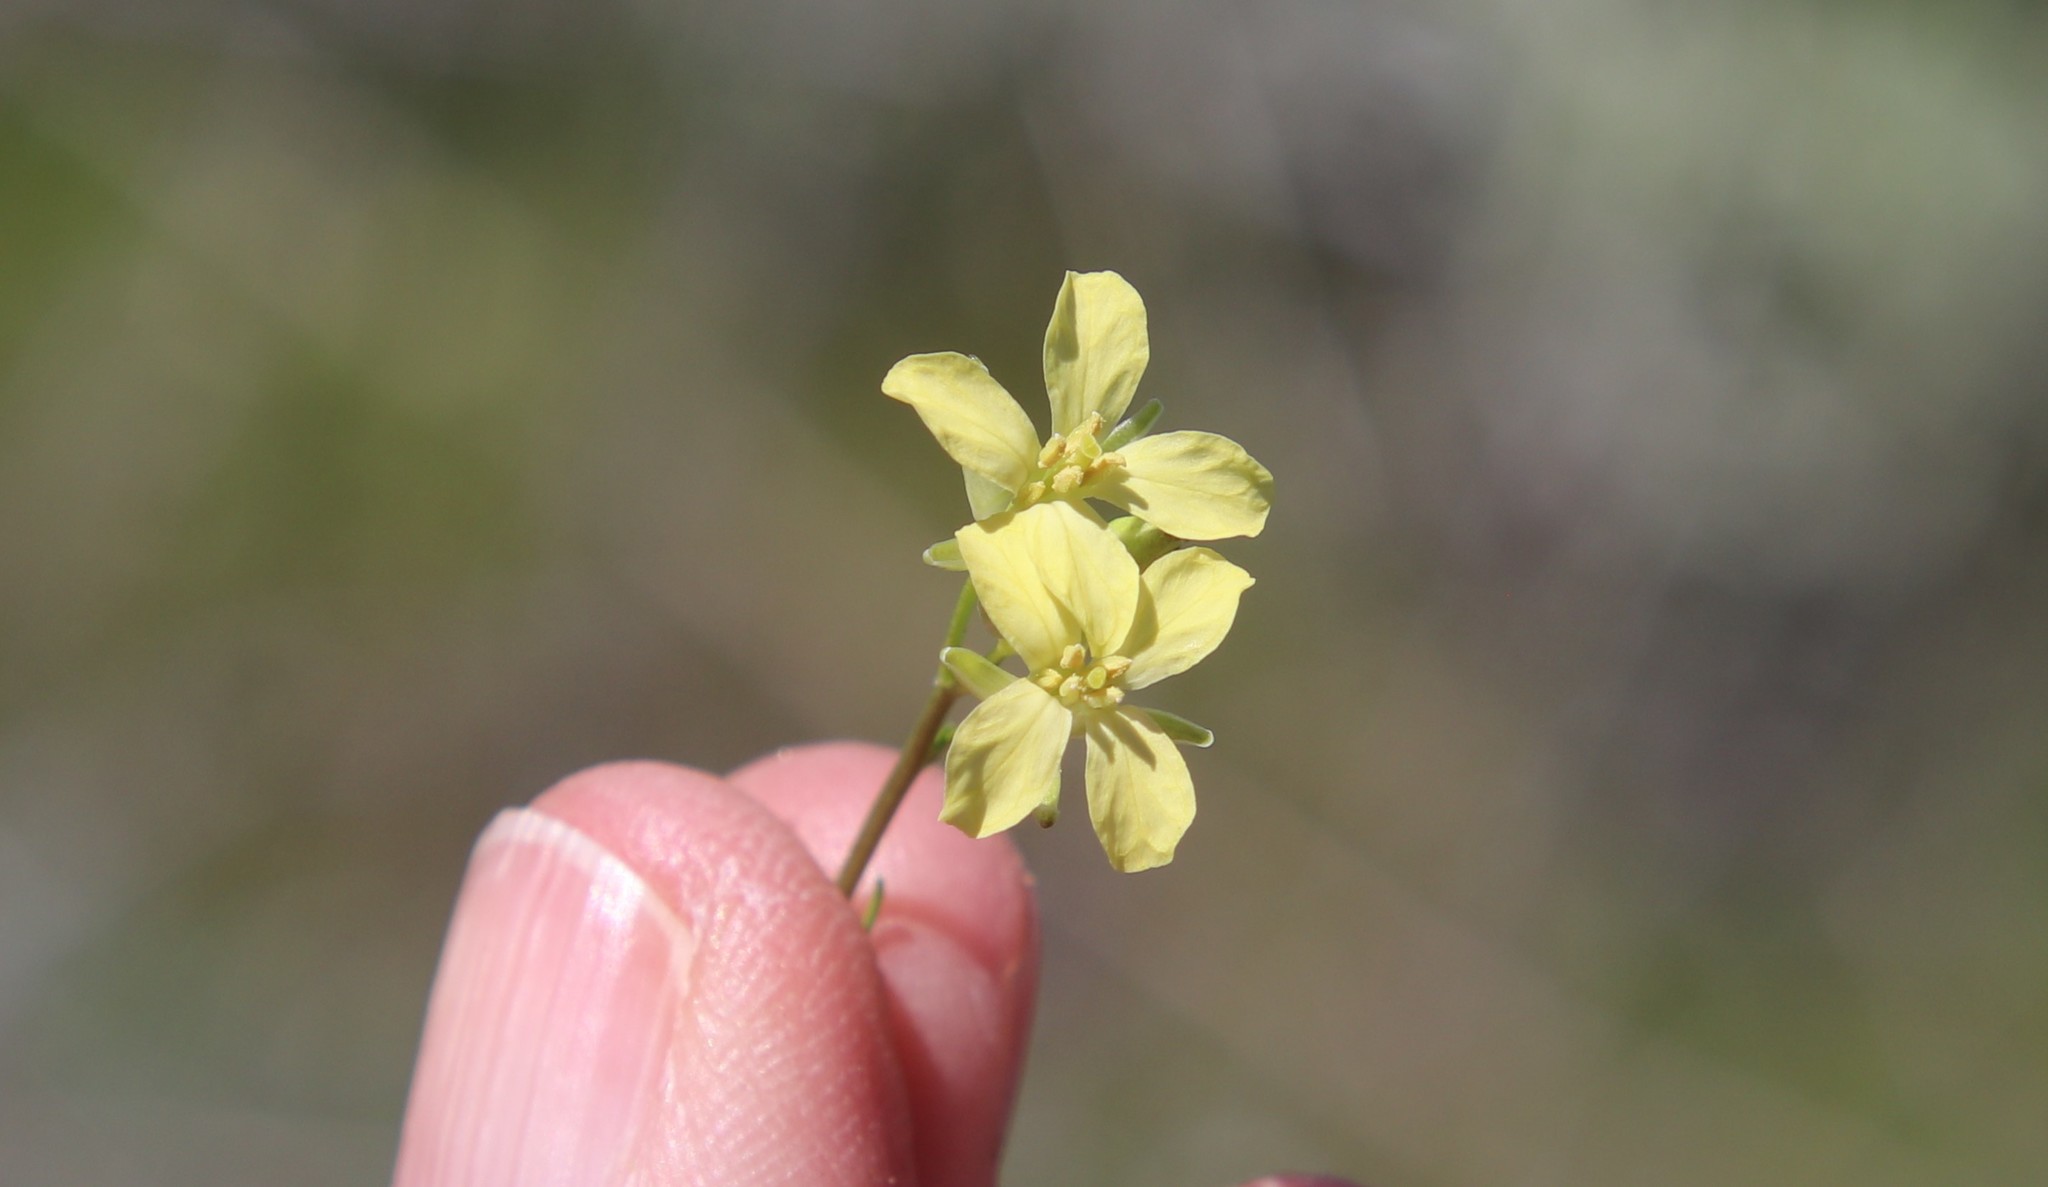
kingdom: Plantae
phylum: Tracheophyta
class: Magnoliopsida
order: Brassicales
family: Brassicaceae
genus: Sisymbrium
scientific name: Sisymbrium altissimum
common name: Tall rocket
